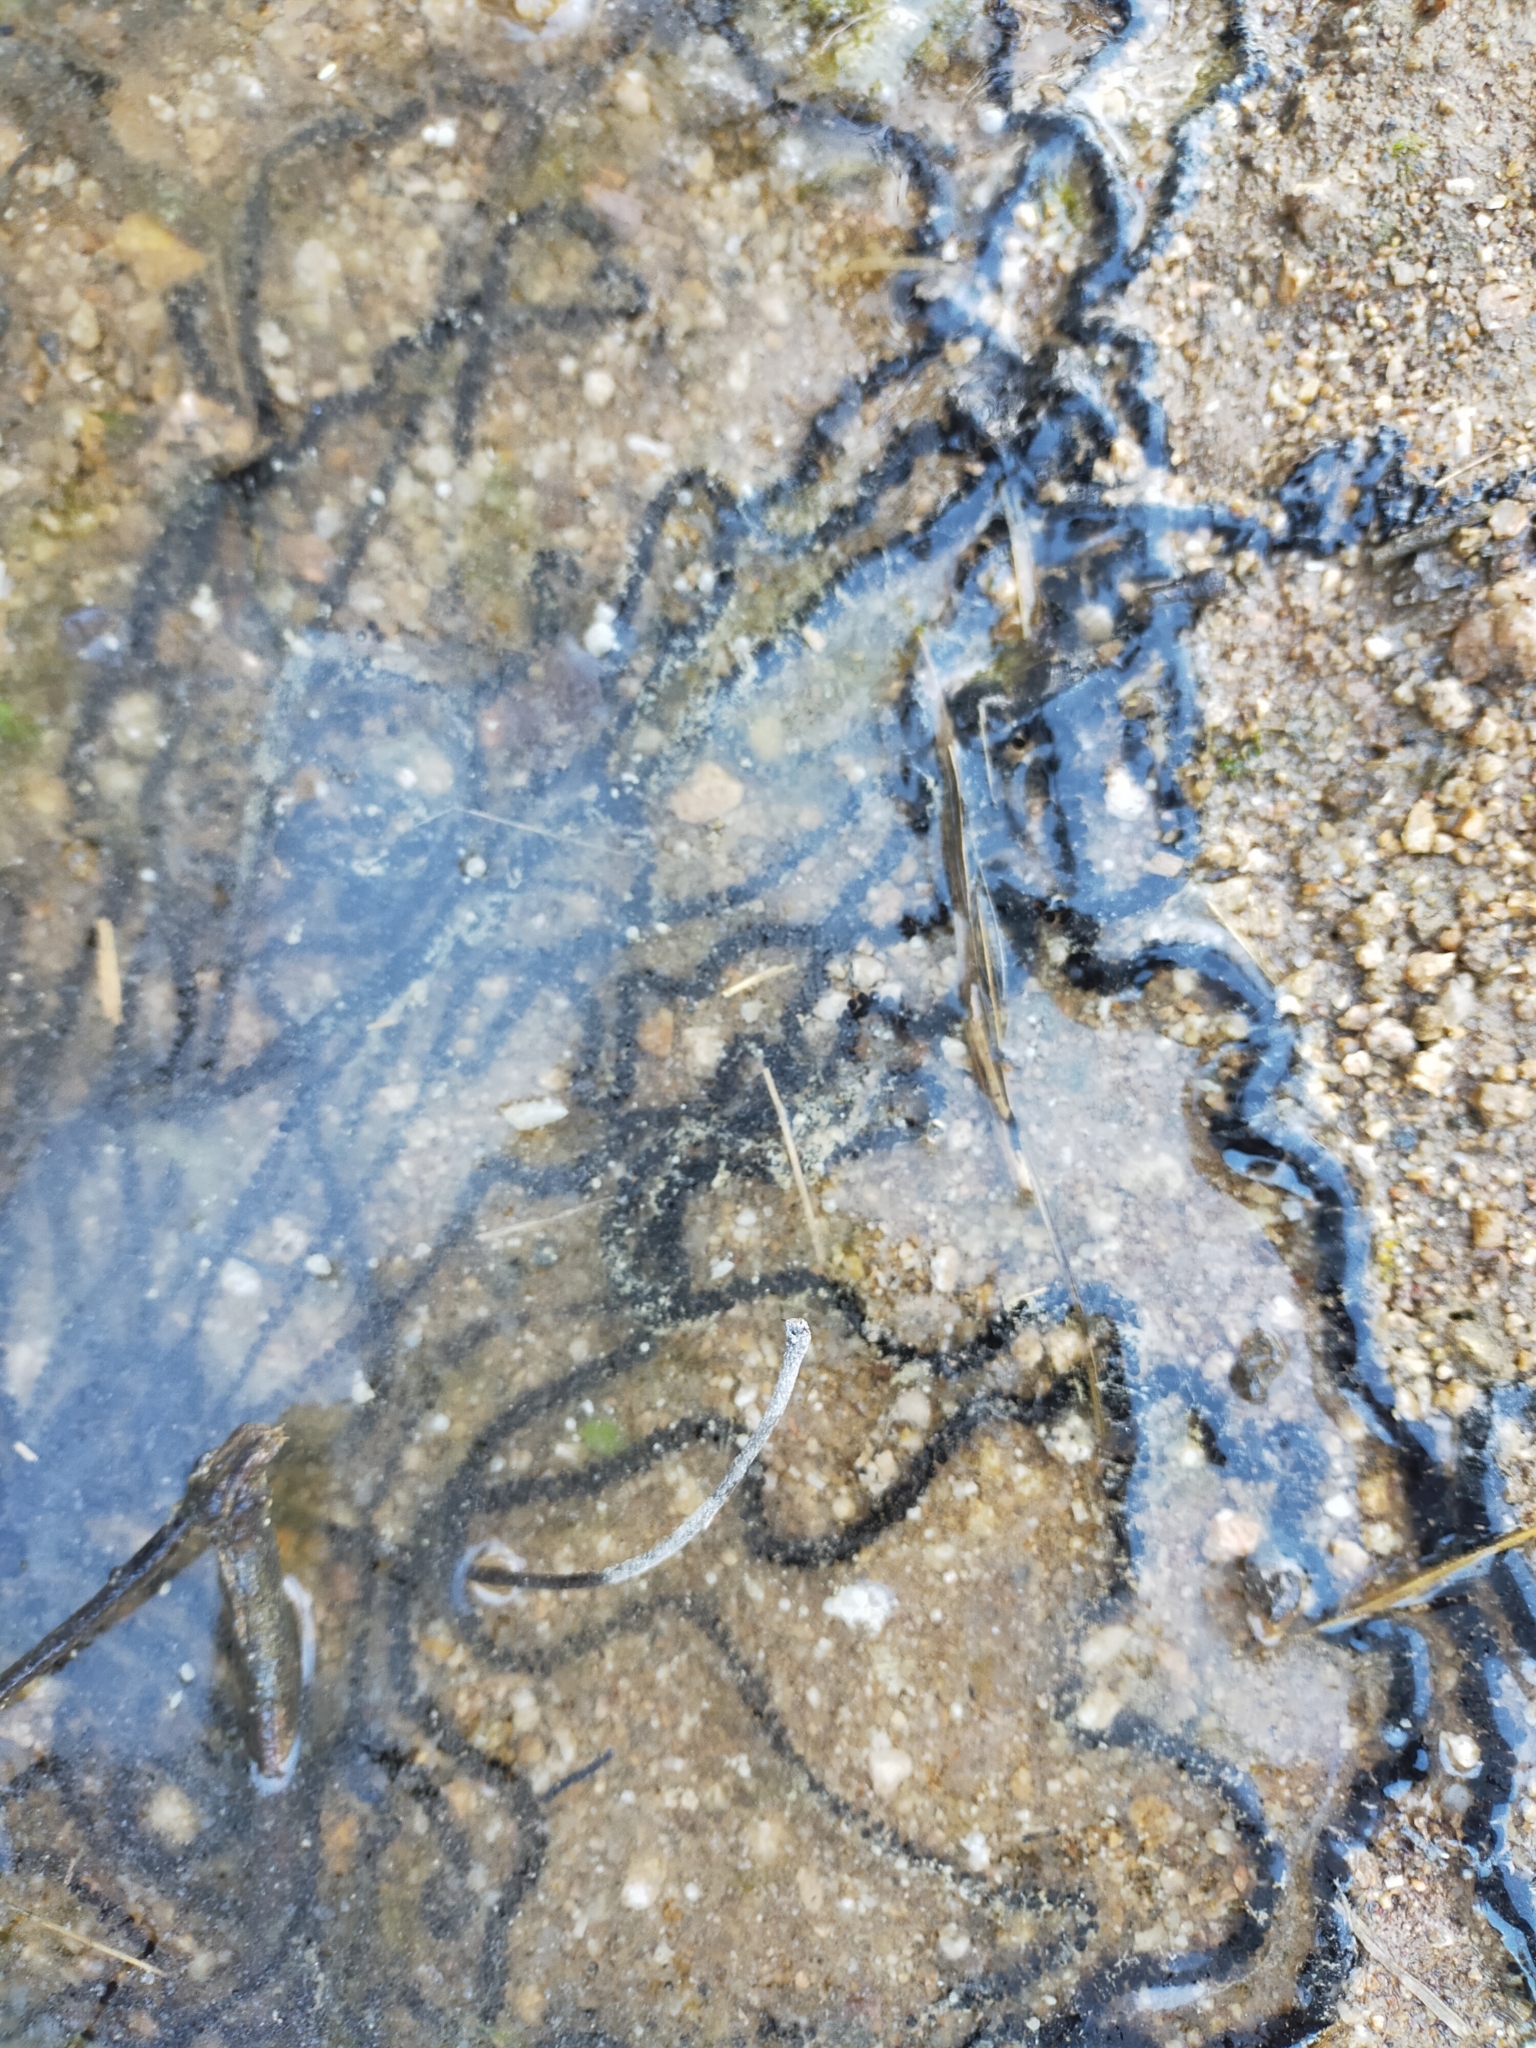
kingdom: Animalia
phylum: Chordata
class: Amphibia
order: Anura
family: Bufonidae
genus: Epidalea
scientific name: Epidalea calamita
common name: Natterjack toad
